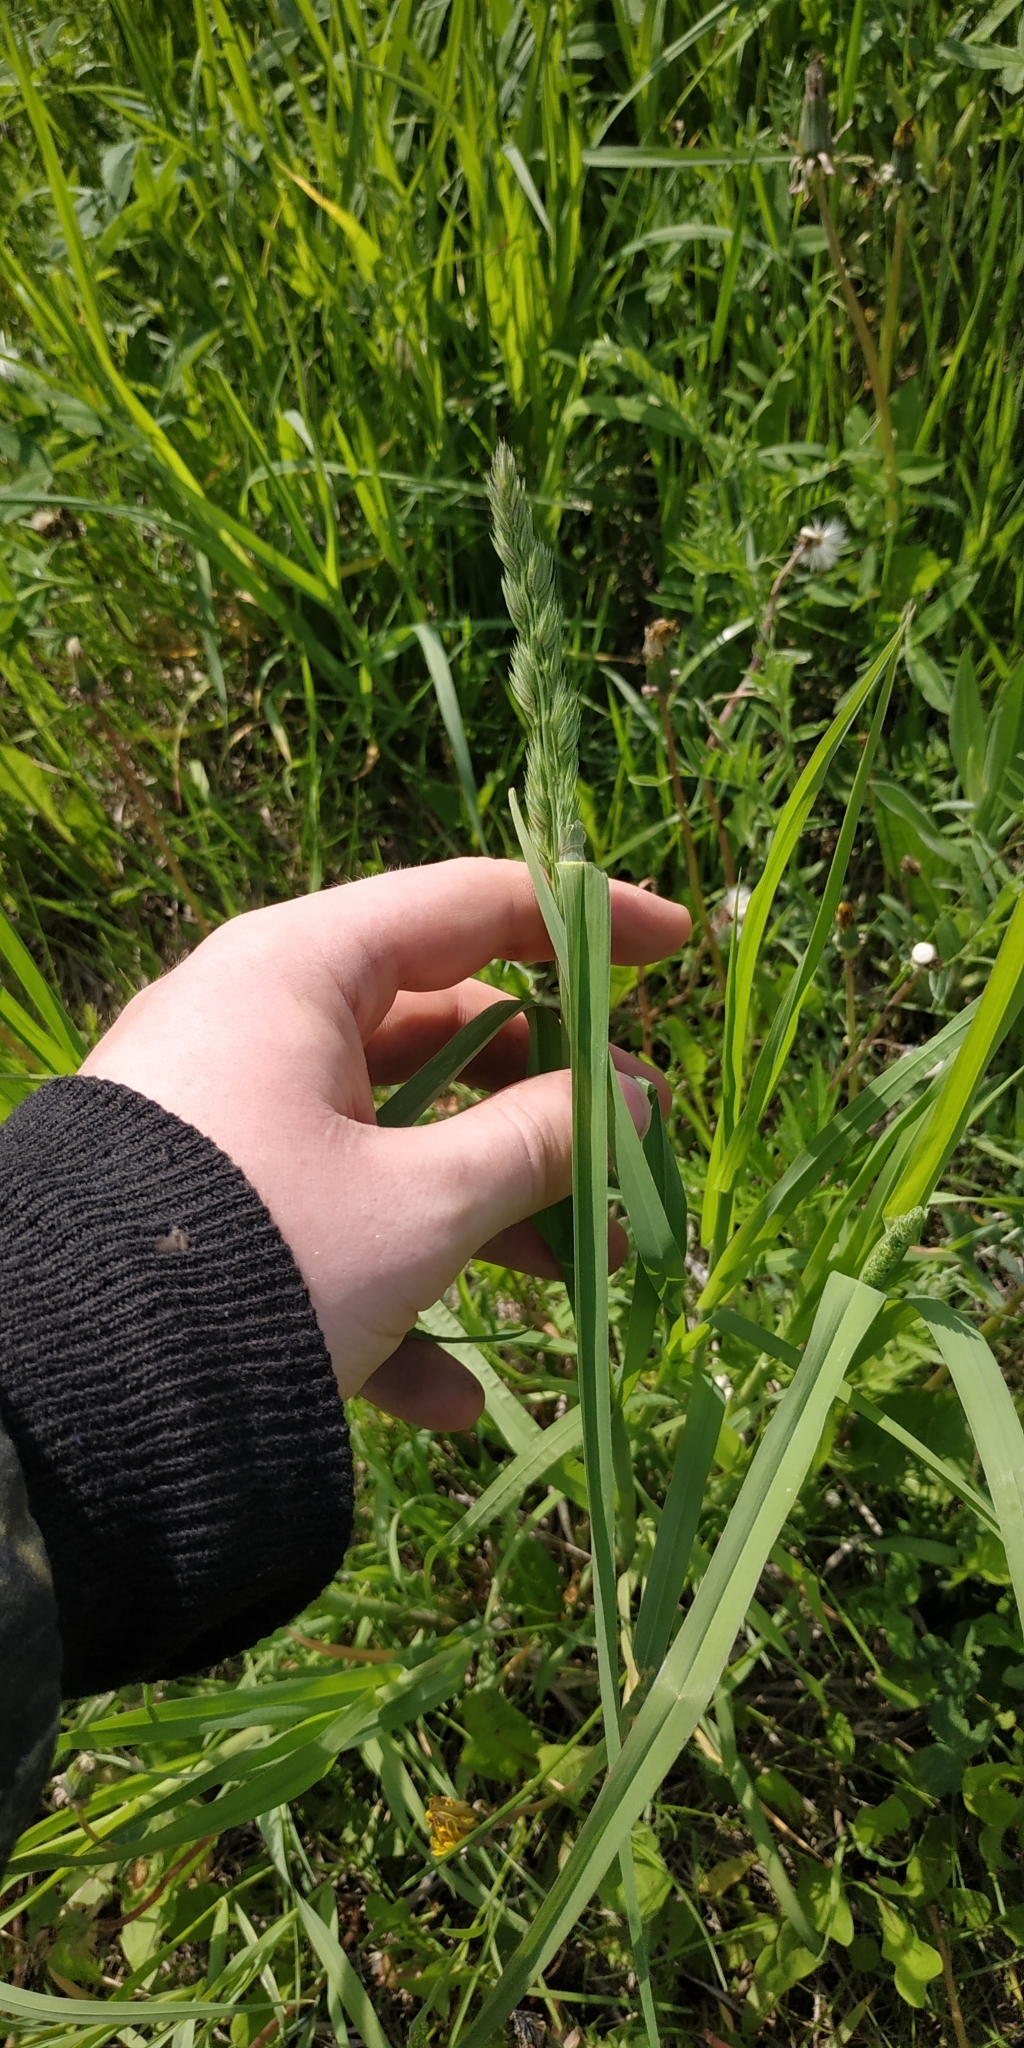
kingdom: Plantae
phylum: Tracheophyta
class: Liliopsida
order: Poales
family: Poaceae
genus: Dactylis
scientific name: Dactylis glomerata
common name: Orchardgrass
